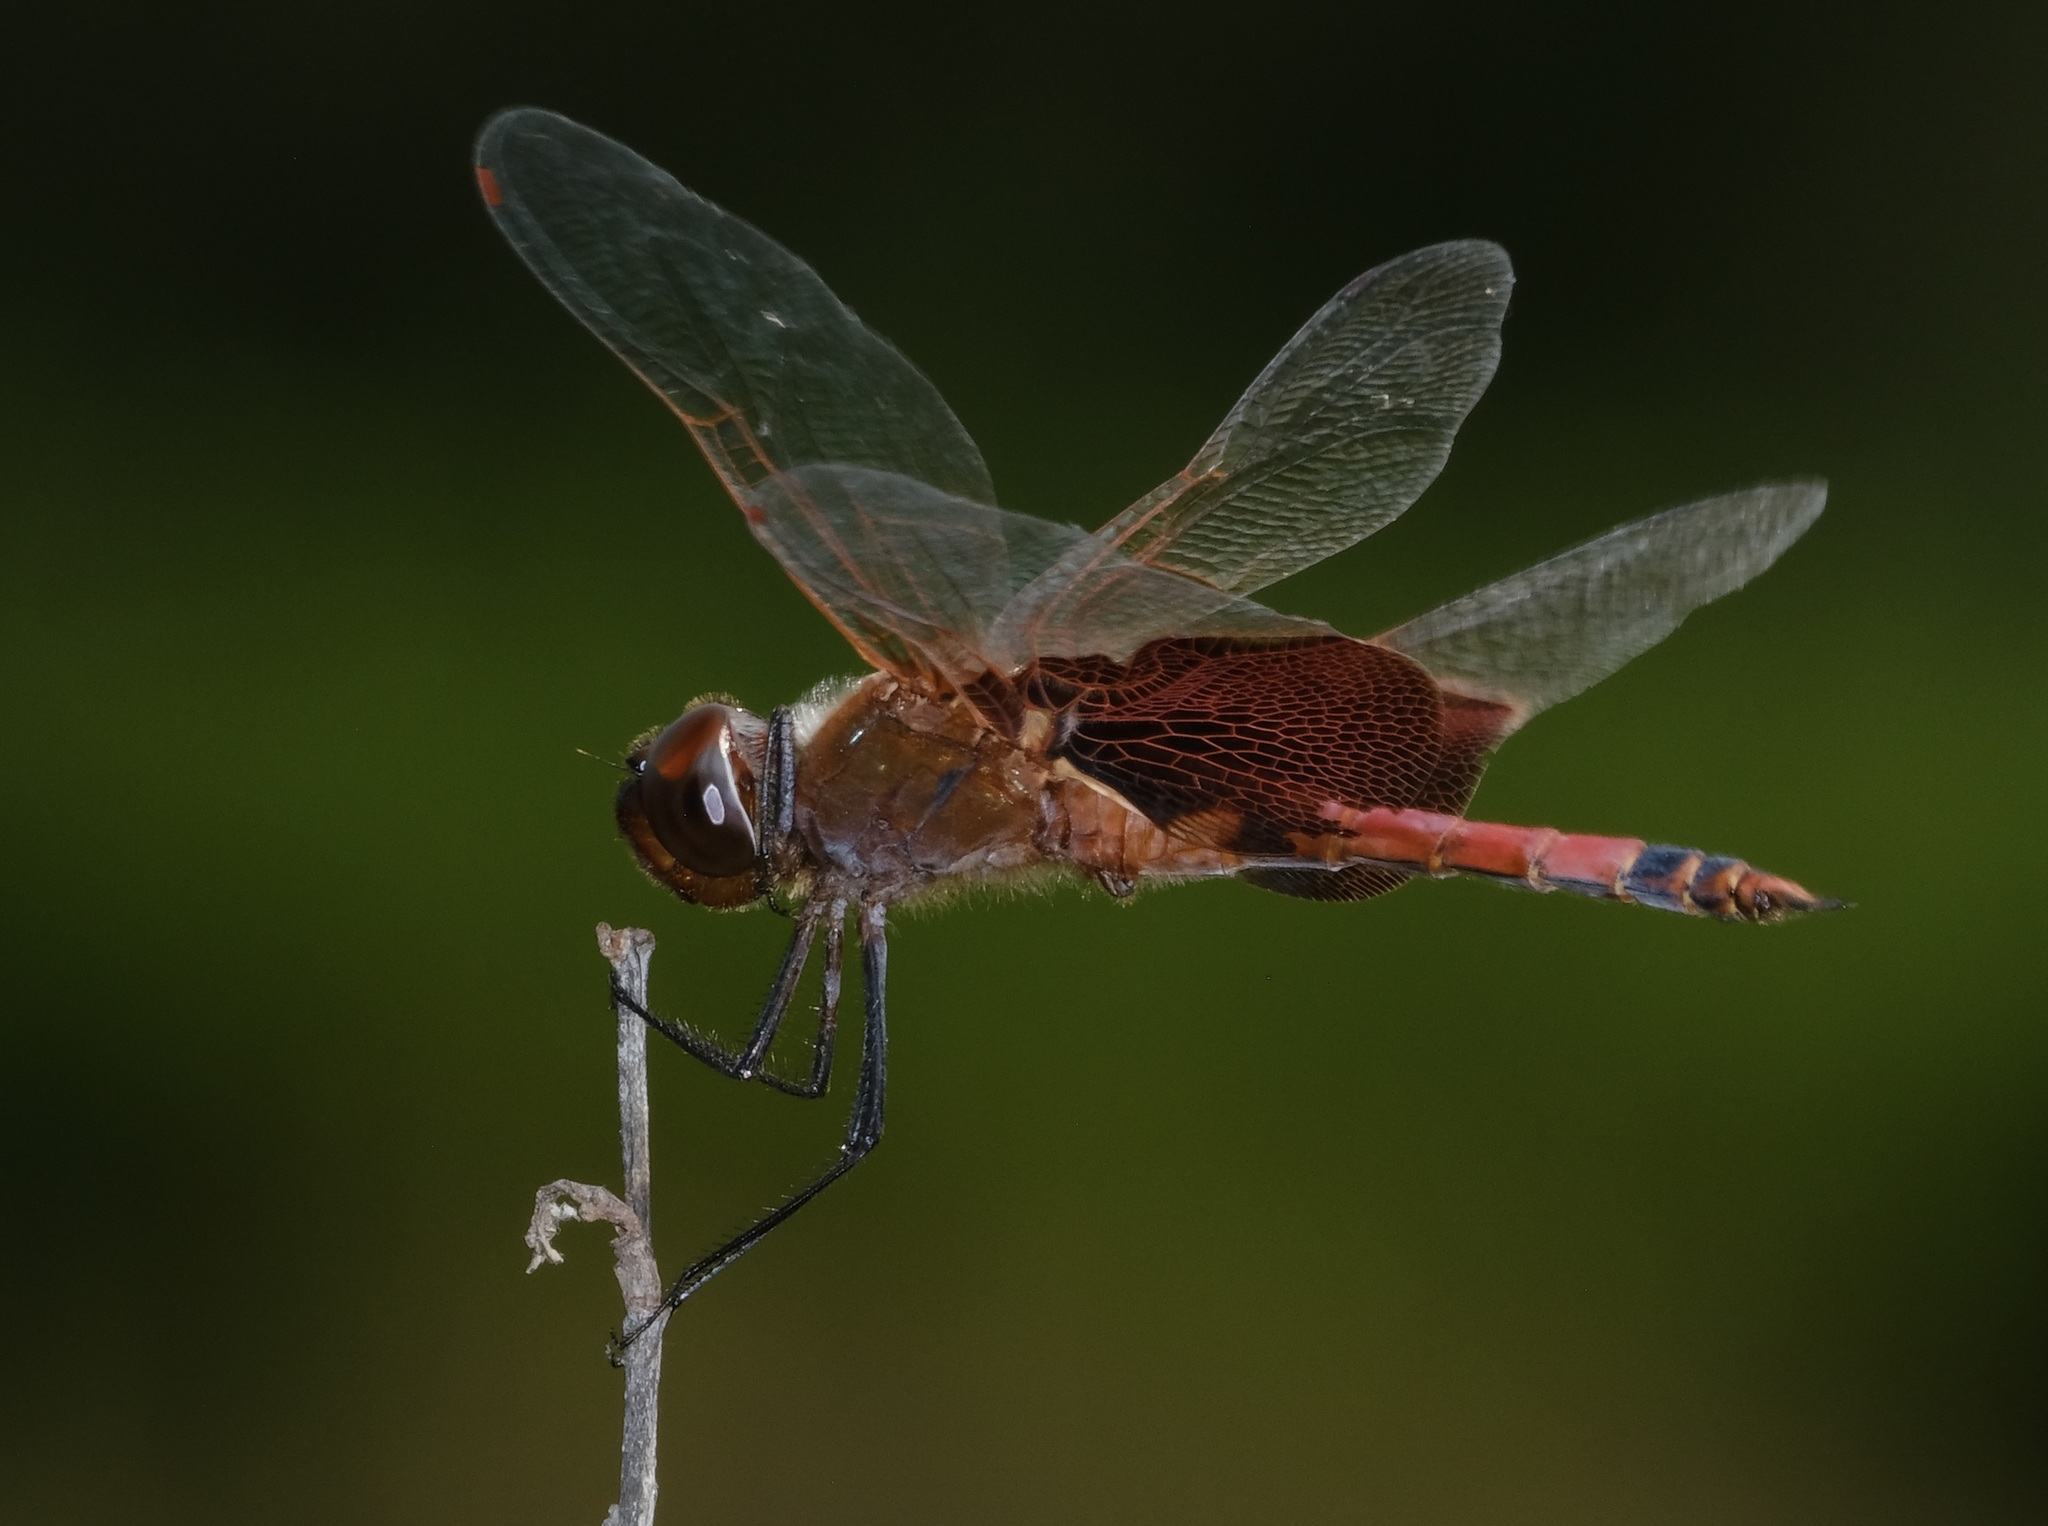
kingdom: Animalia
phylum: Arthropoda
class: Insecta
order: Odonata
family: Libellulidae
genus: Tramea
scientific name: Tramea carolina
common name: Carolina saddlebags
